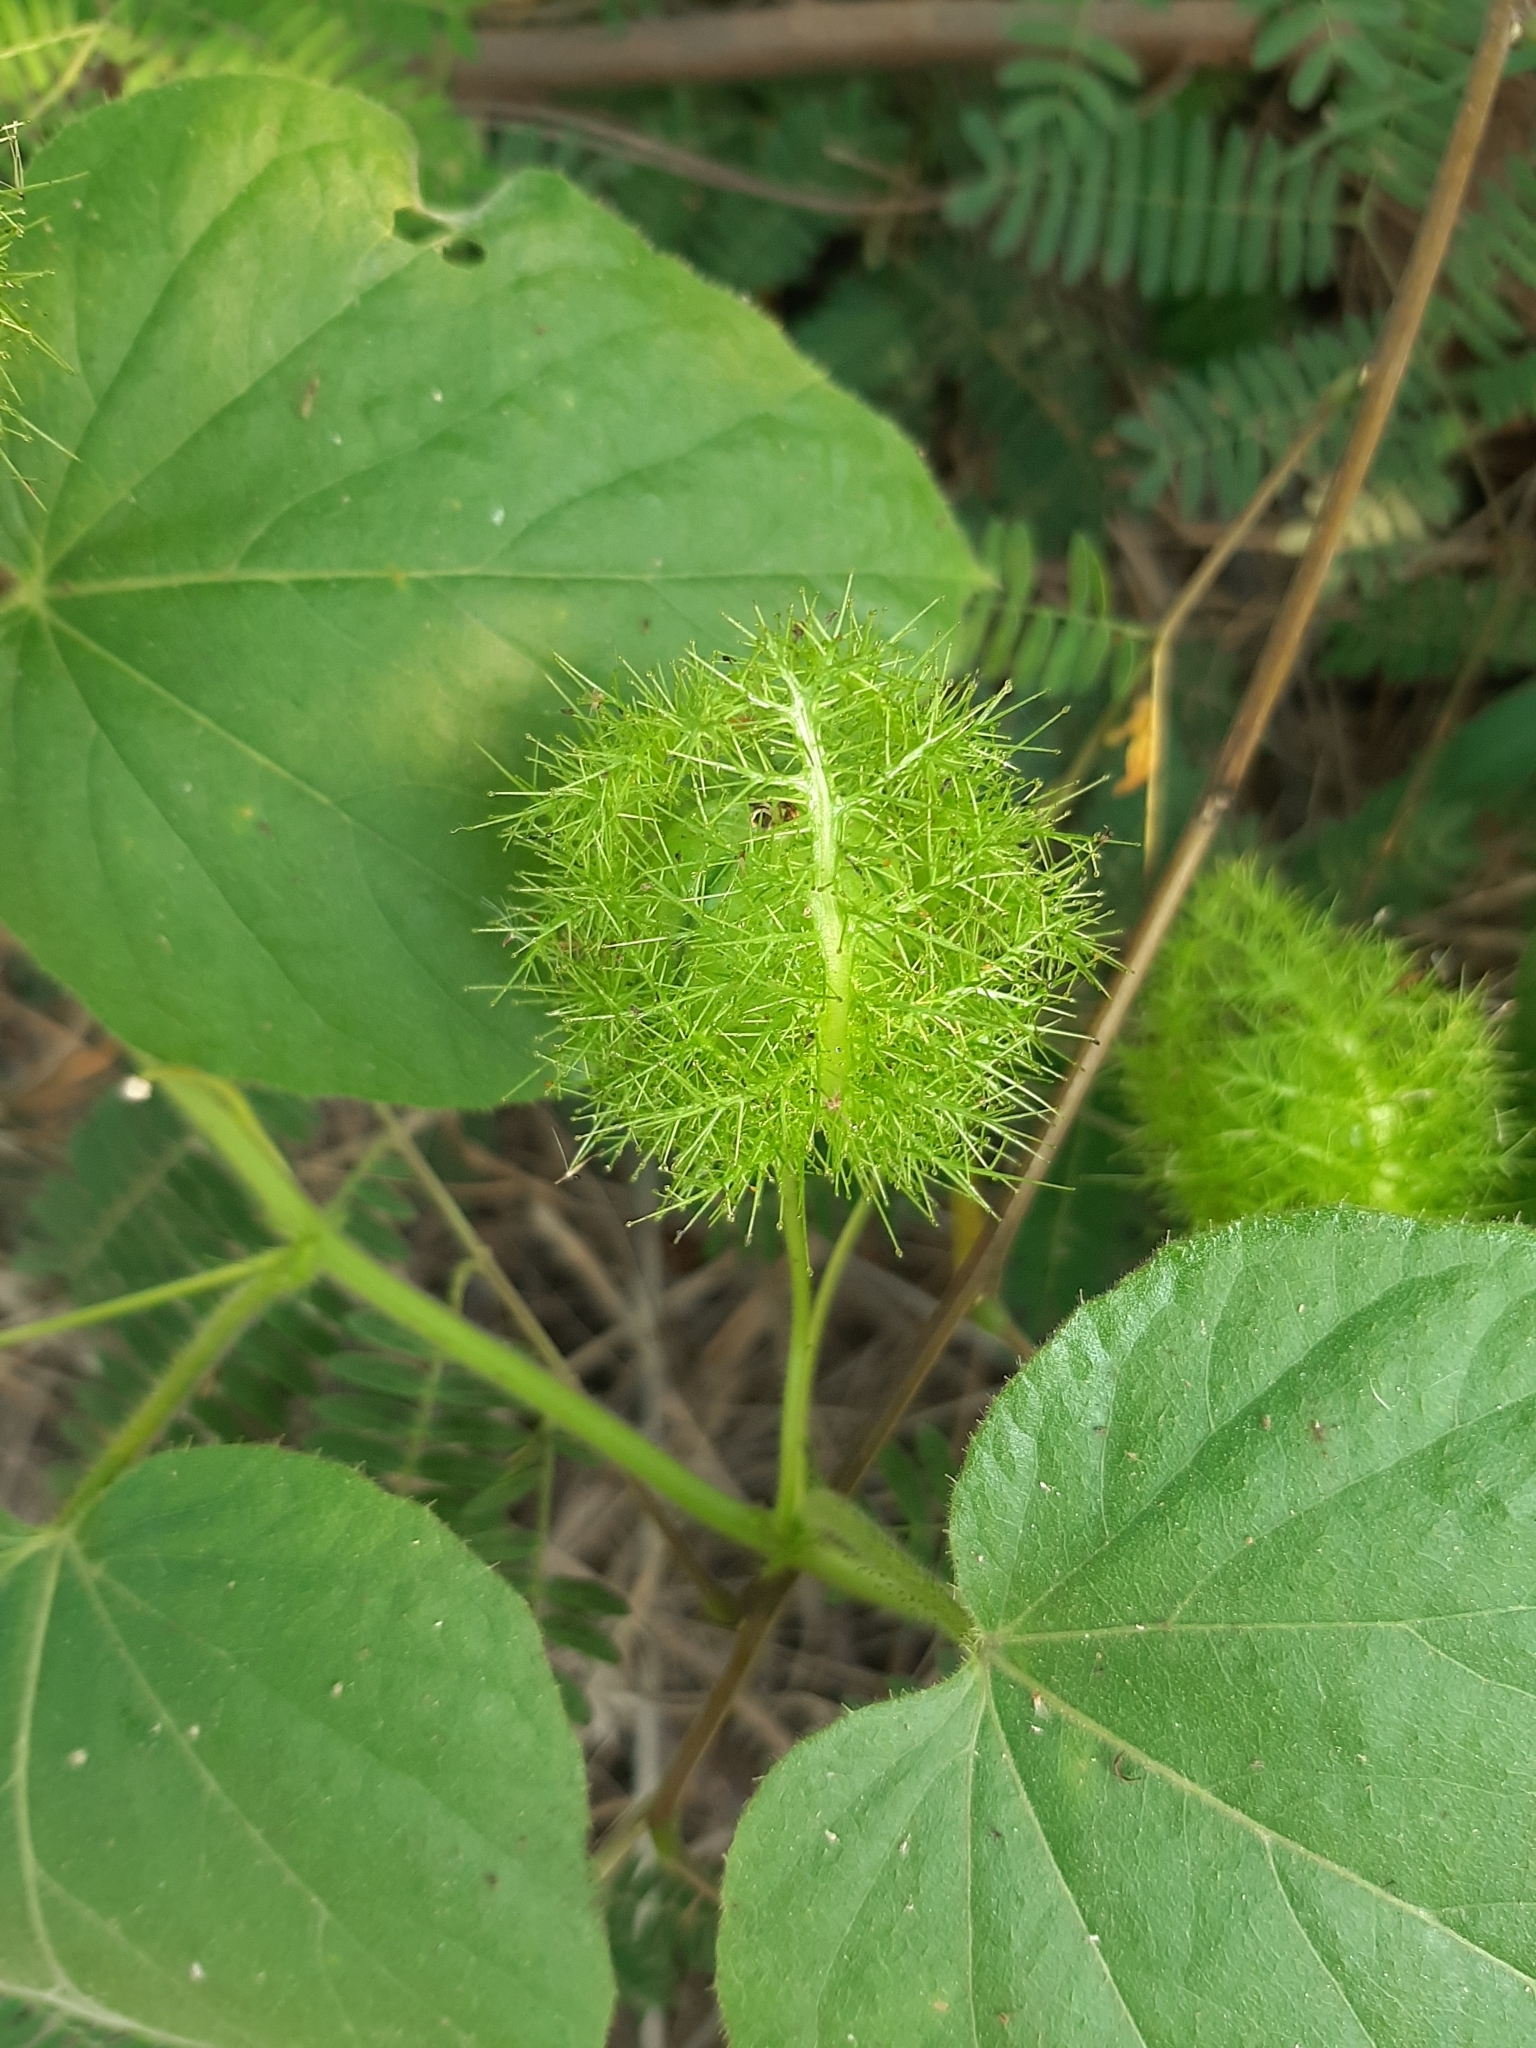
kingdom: Plantae
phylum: Tracheophyta
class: Magnoliopsida
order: Malpighiales
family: Passifloraceae
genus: Passiflora
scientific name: Passiflora vesicaria
